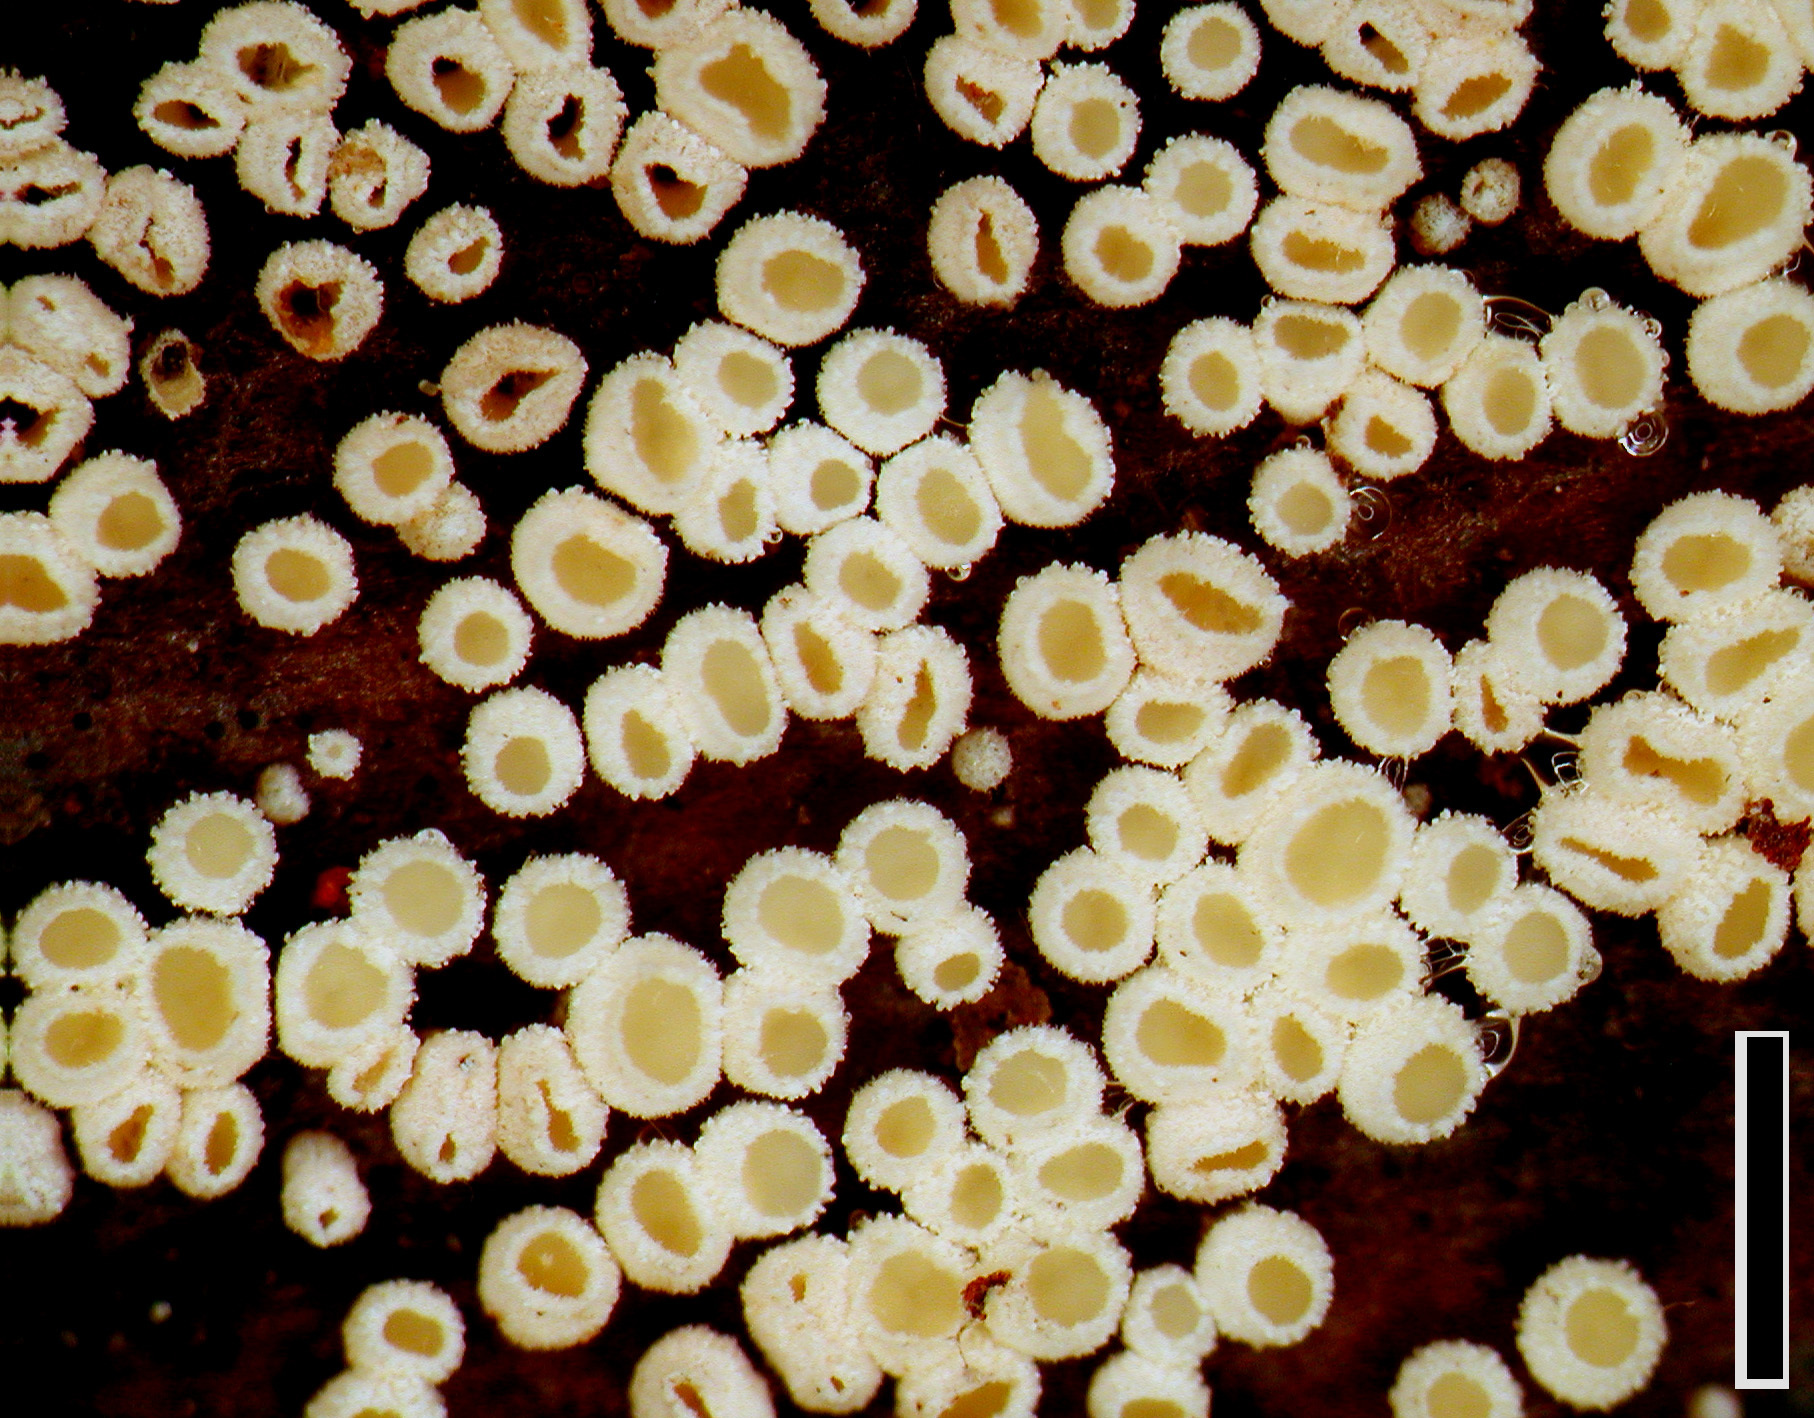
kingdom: Fungi
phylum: Ascomycota
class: Leotiomycetes
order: Helotiales
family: Lachnaceae
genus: Lachnellula
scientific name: Lachnellula rhopalostylidis
